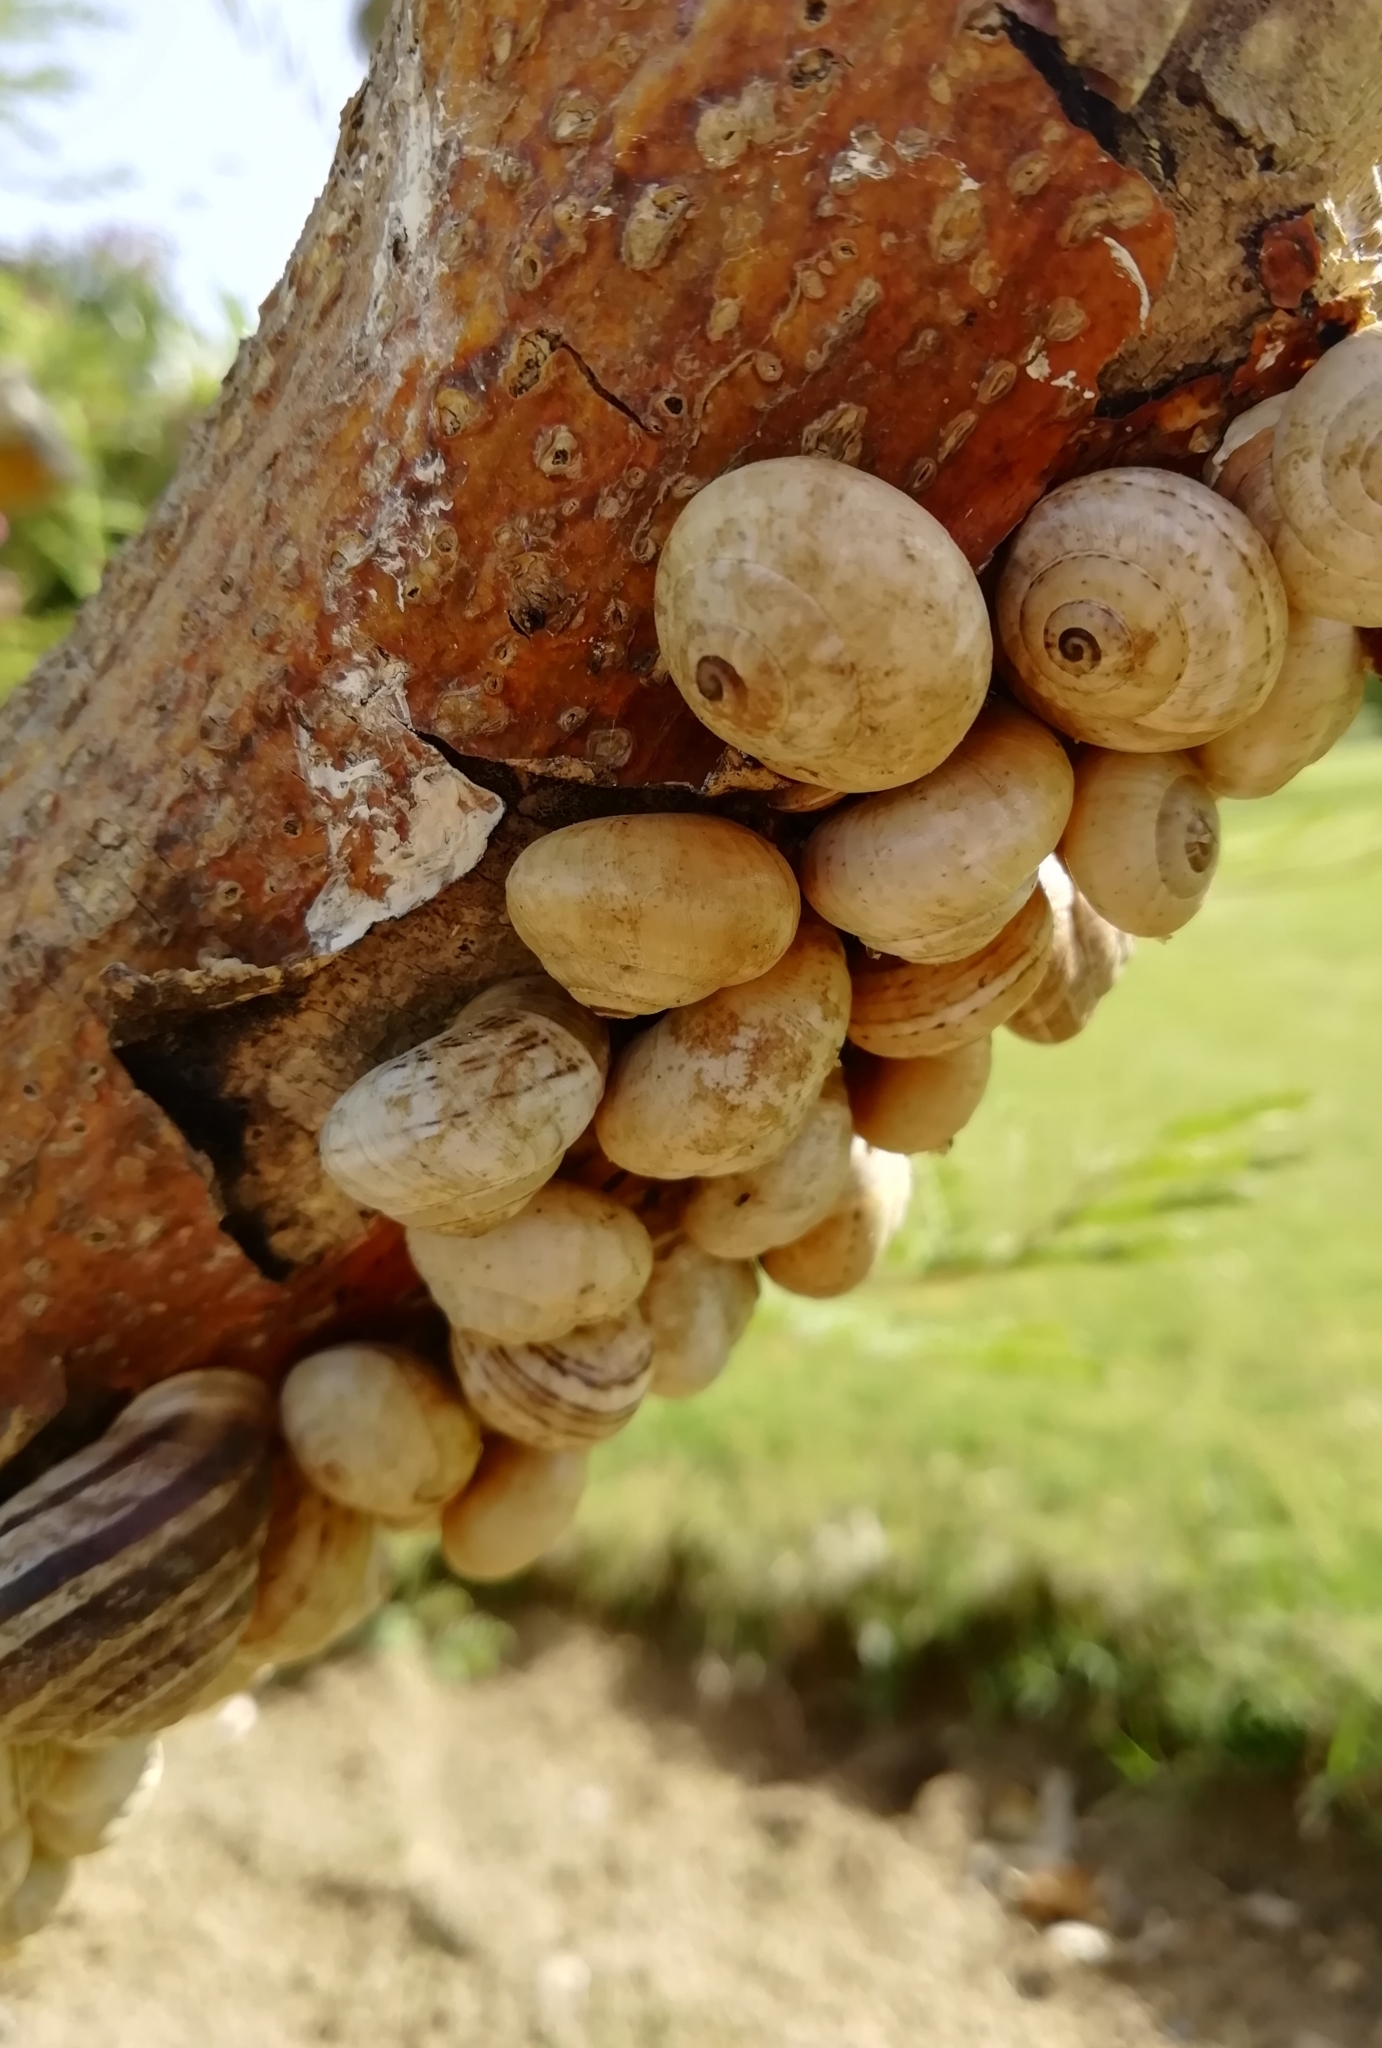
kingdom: Animalia
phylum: Mollusca
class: Gastropoda
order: Stylommatophora
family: Helicidae
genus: Theba
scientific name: Theba pisana
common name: White snail
